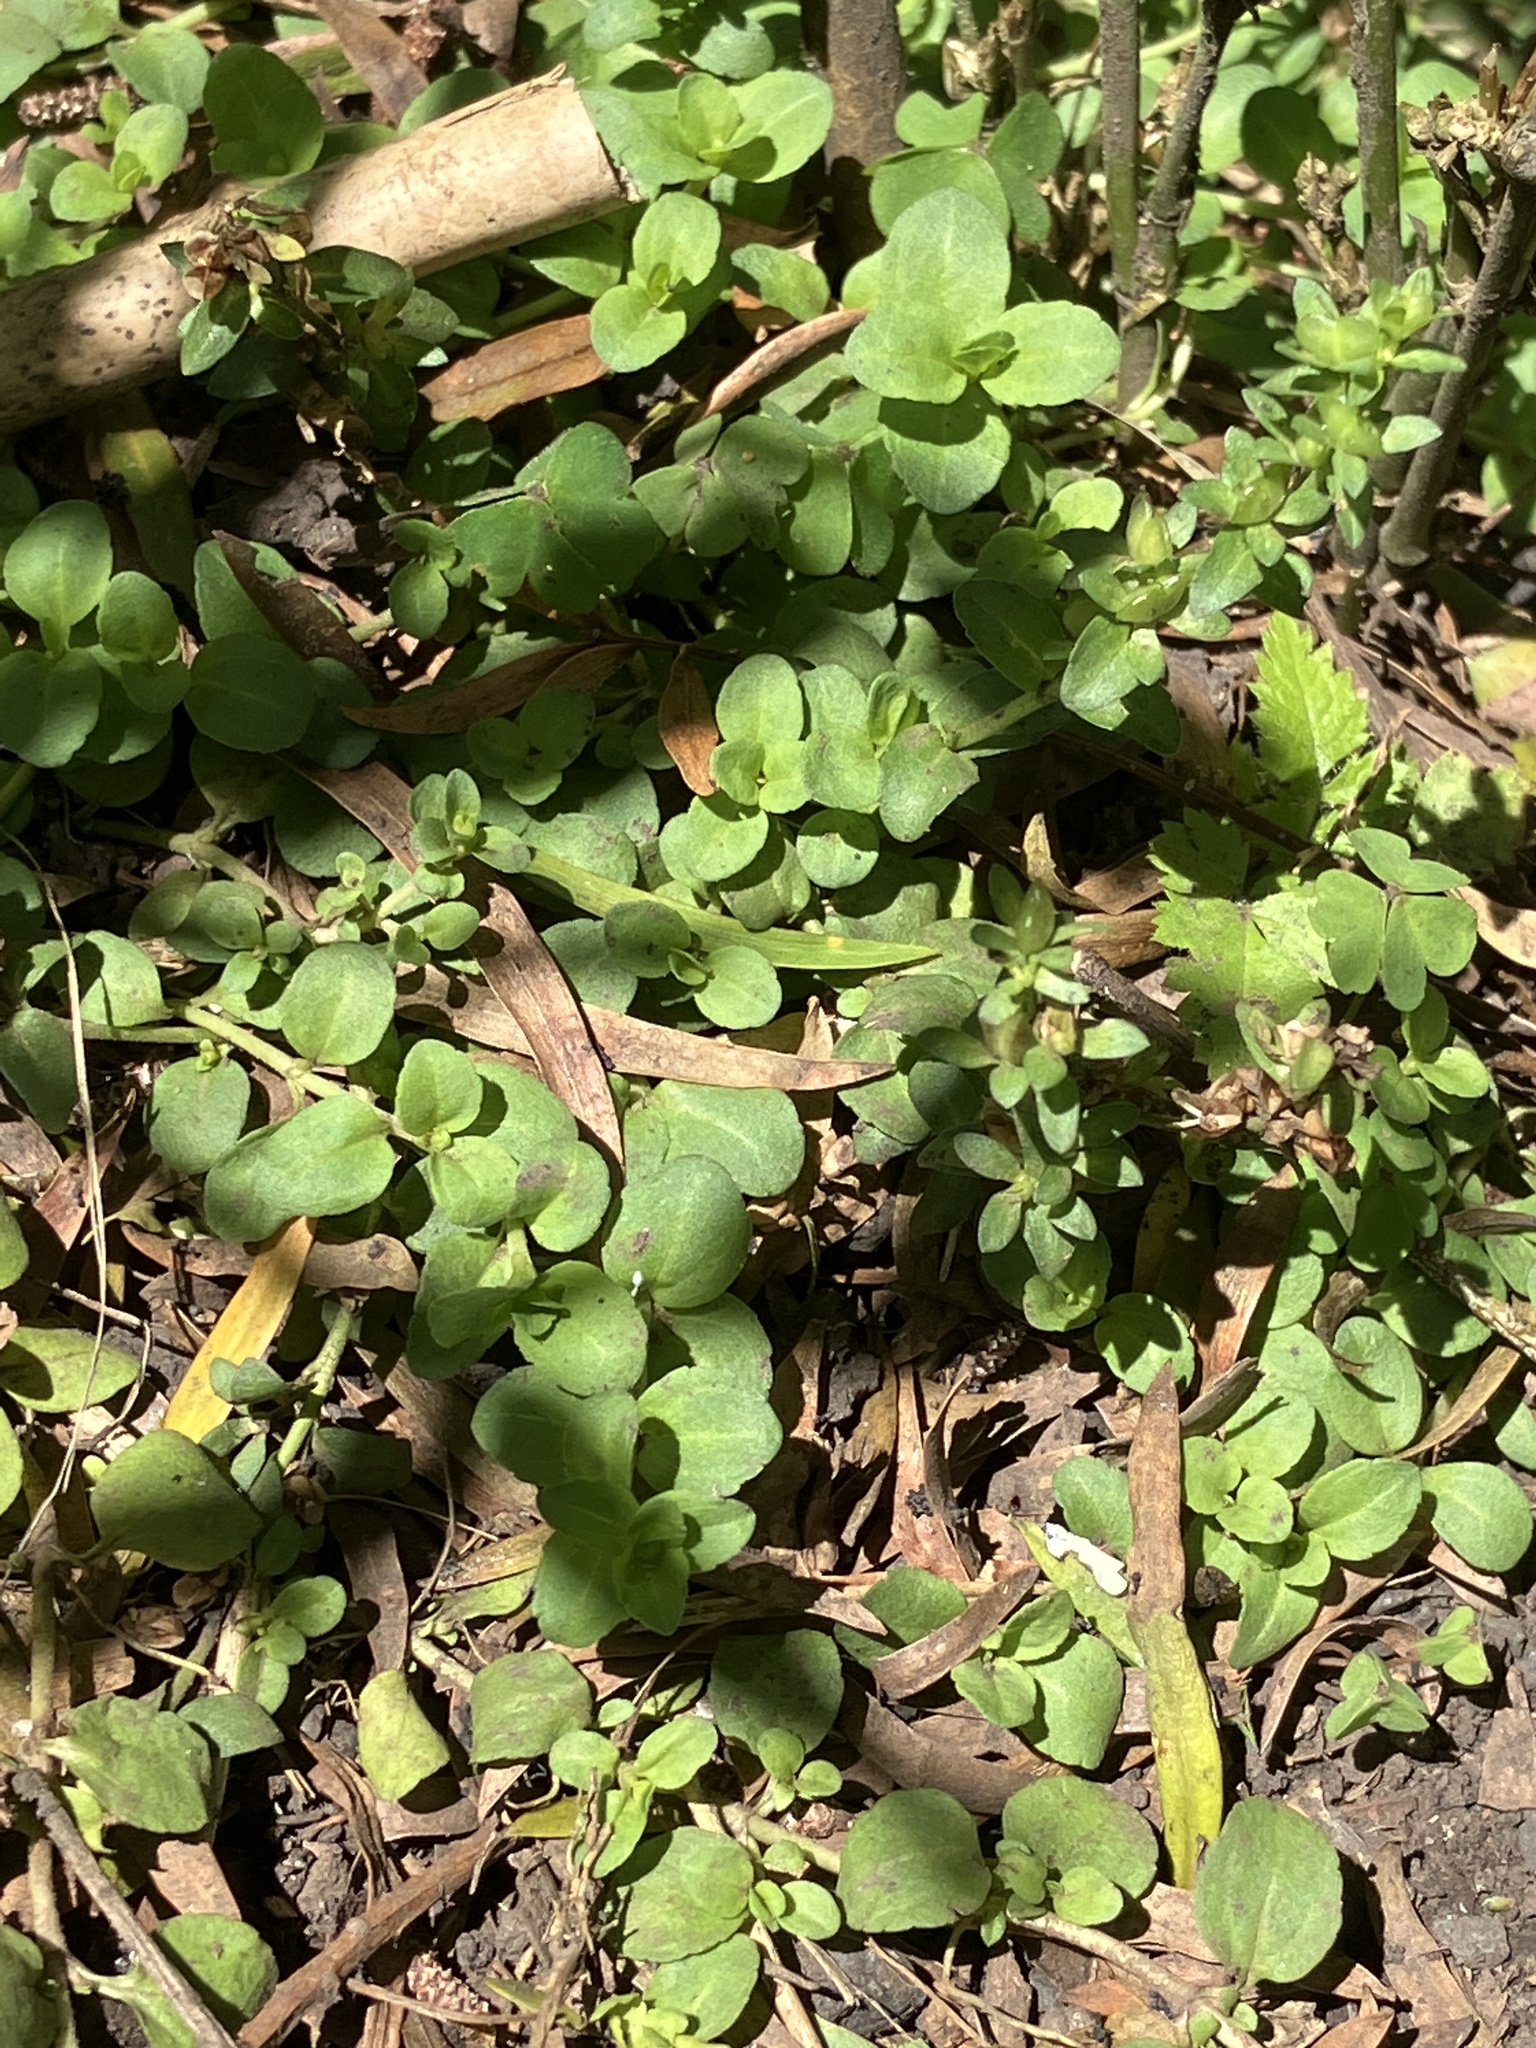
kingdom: Plantae
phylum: Tracheophyta
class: Magnoliopsida
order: Lamiales
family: Plantaginaceae
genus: Veronica
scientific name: Veronica serpyllifolia
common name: Thyme-leaved speedwell
